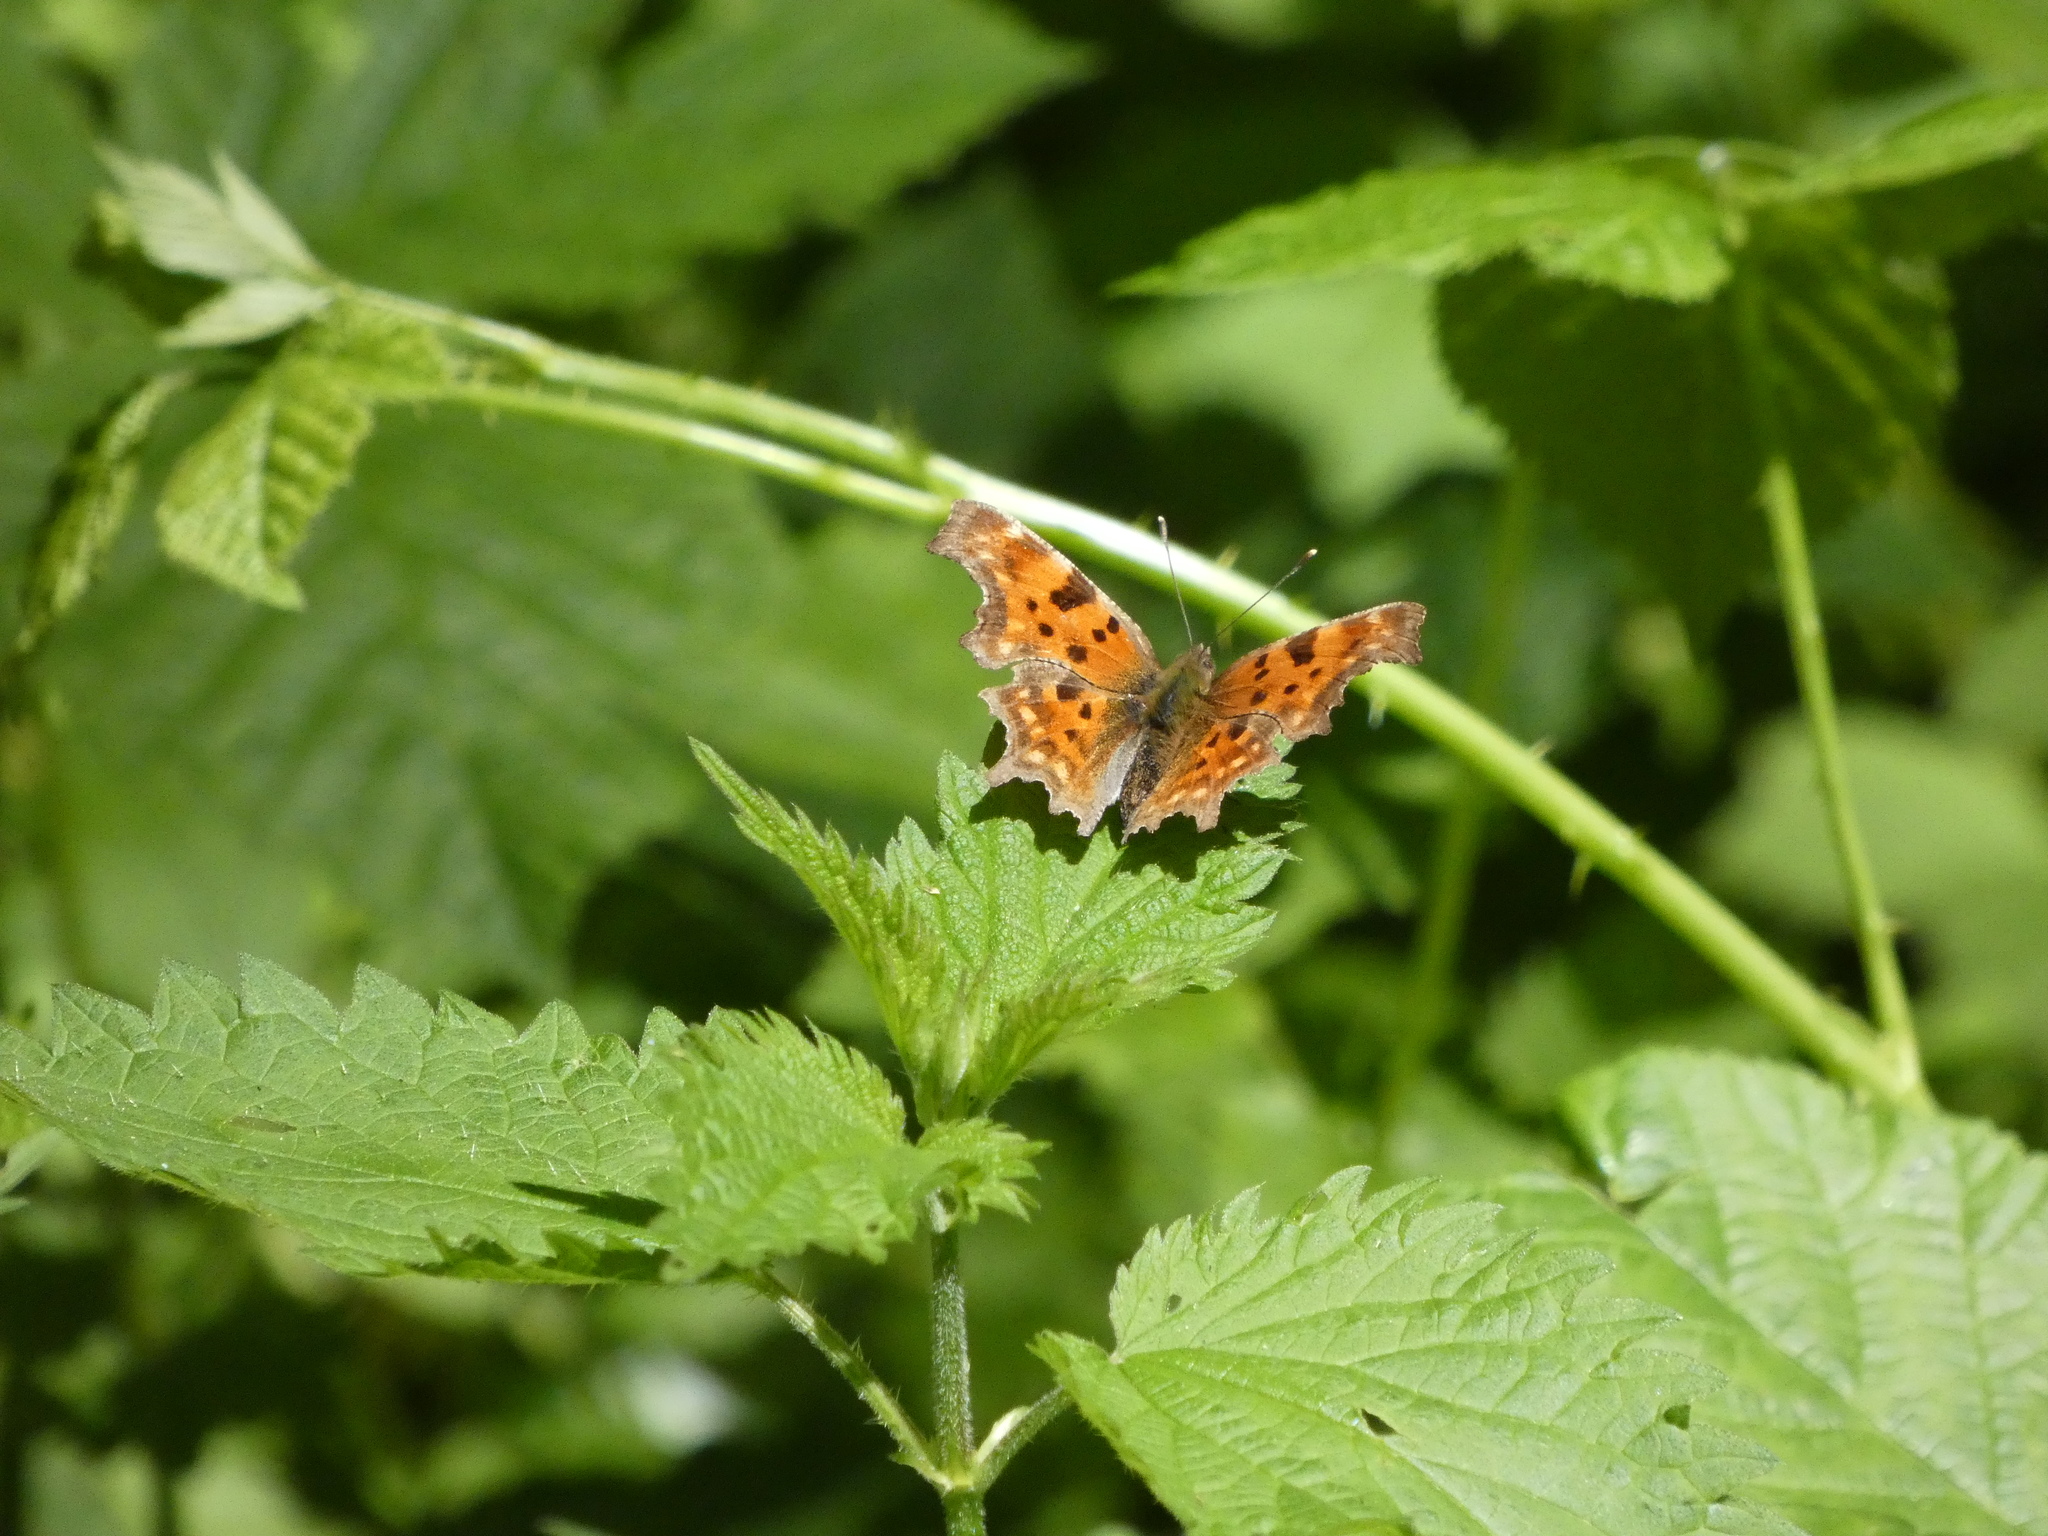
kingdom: Animalia
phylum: Arthropoda
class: Insecta
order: Lepidoptera
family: Nymphalidae
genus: Polygonia
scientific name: Polygonia c-album
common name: Comma
